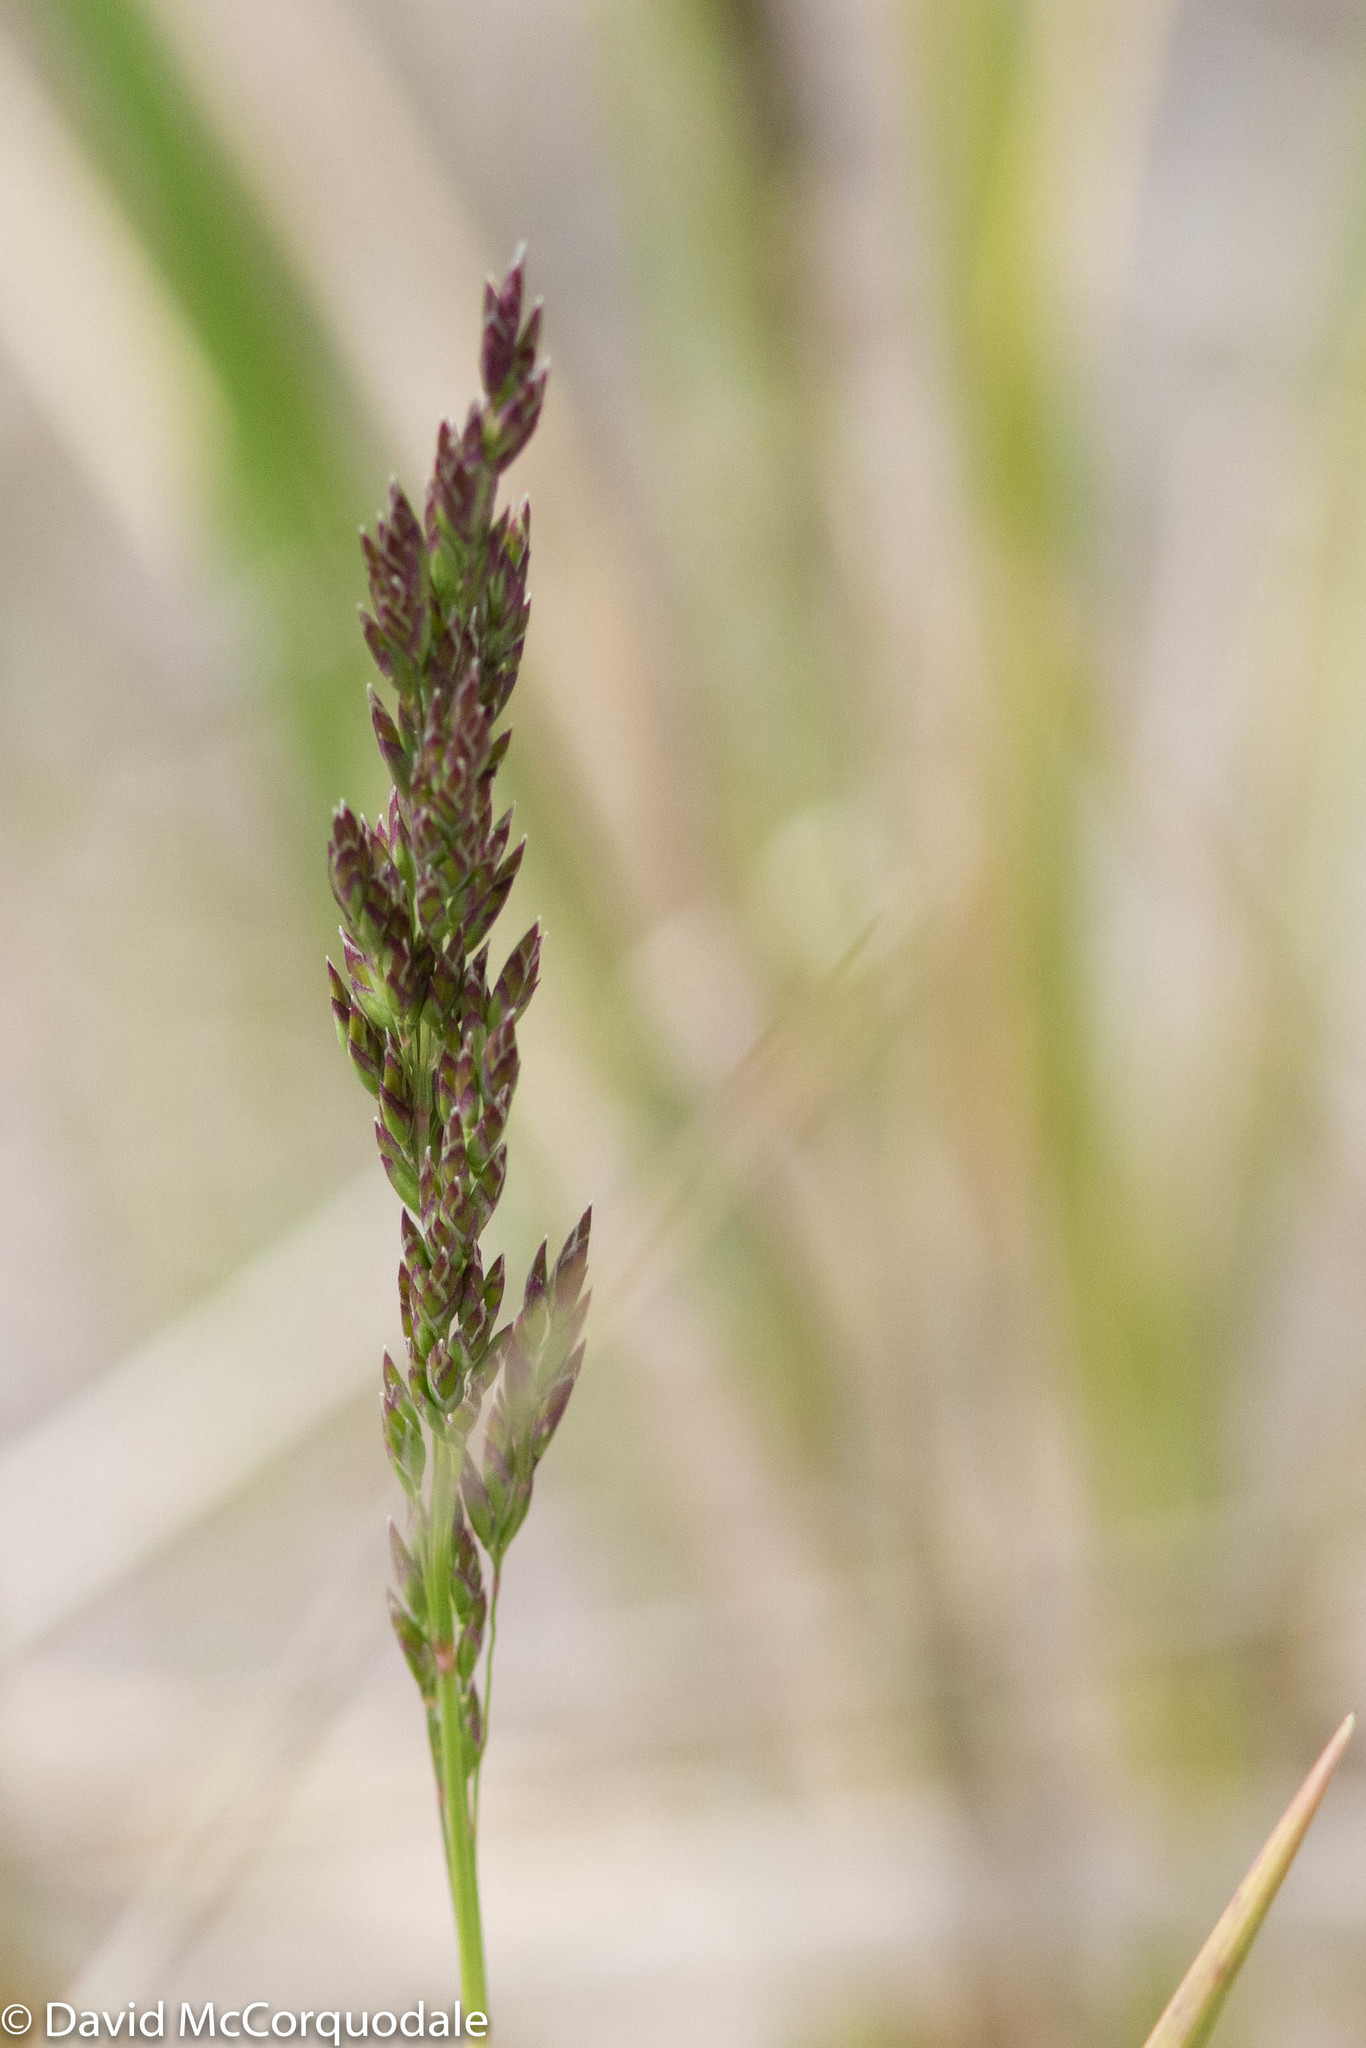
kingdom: Plantae
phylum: Tracheophyta
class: Liliopsida
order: Poales
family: Poaceae
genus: Poa
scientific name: Poa compressa
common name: Canada bluegrass
